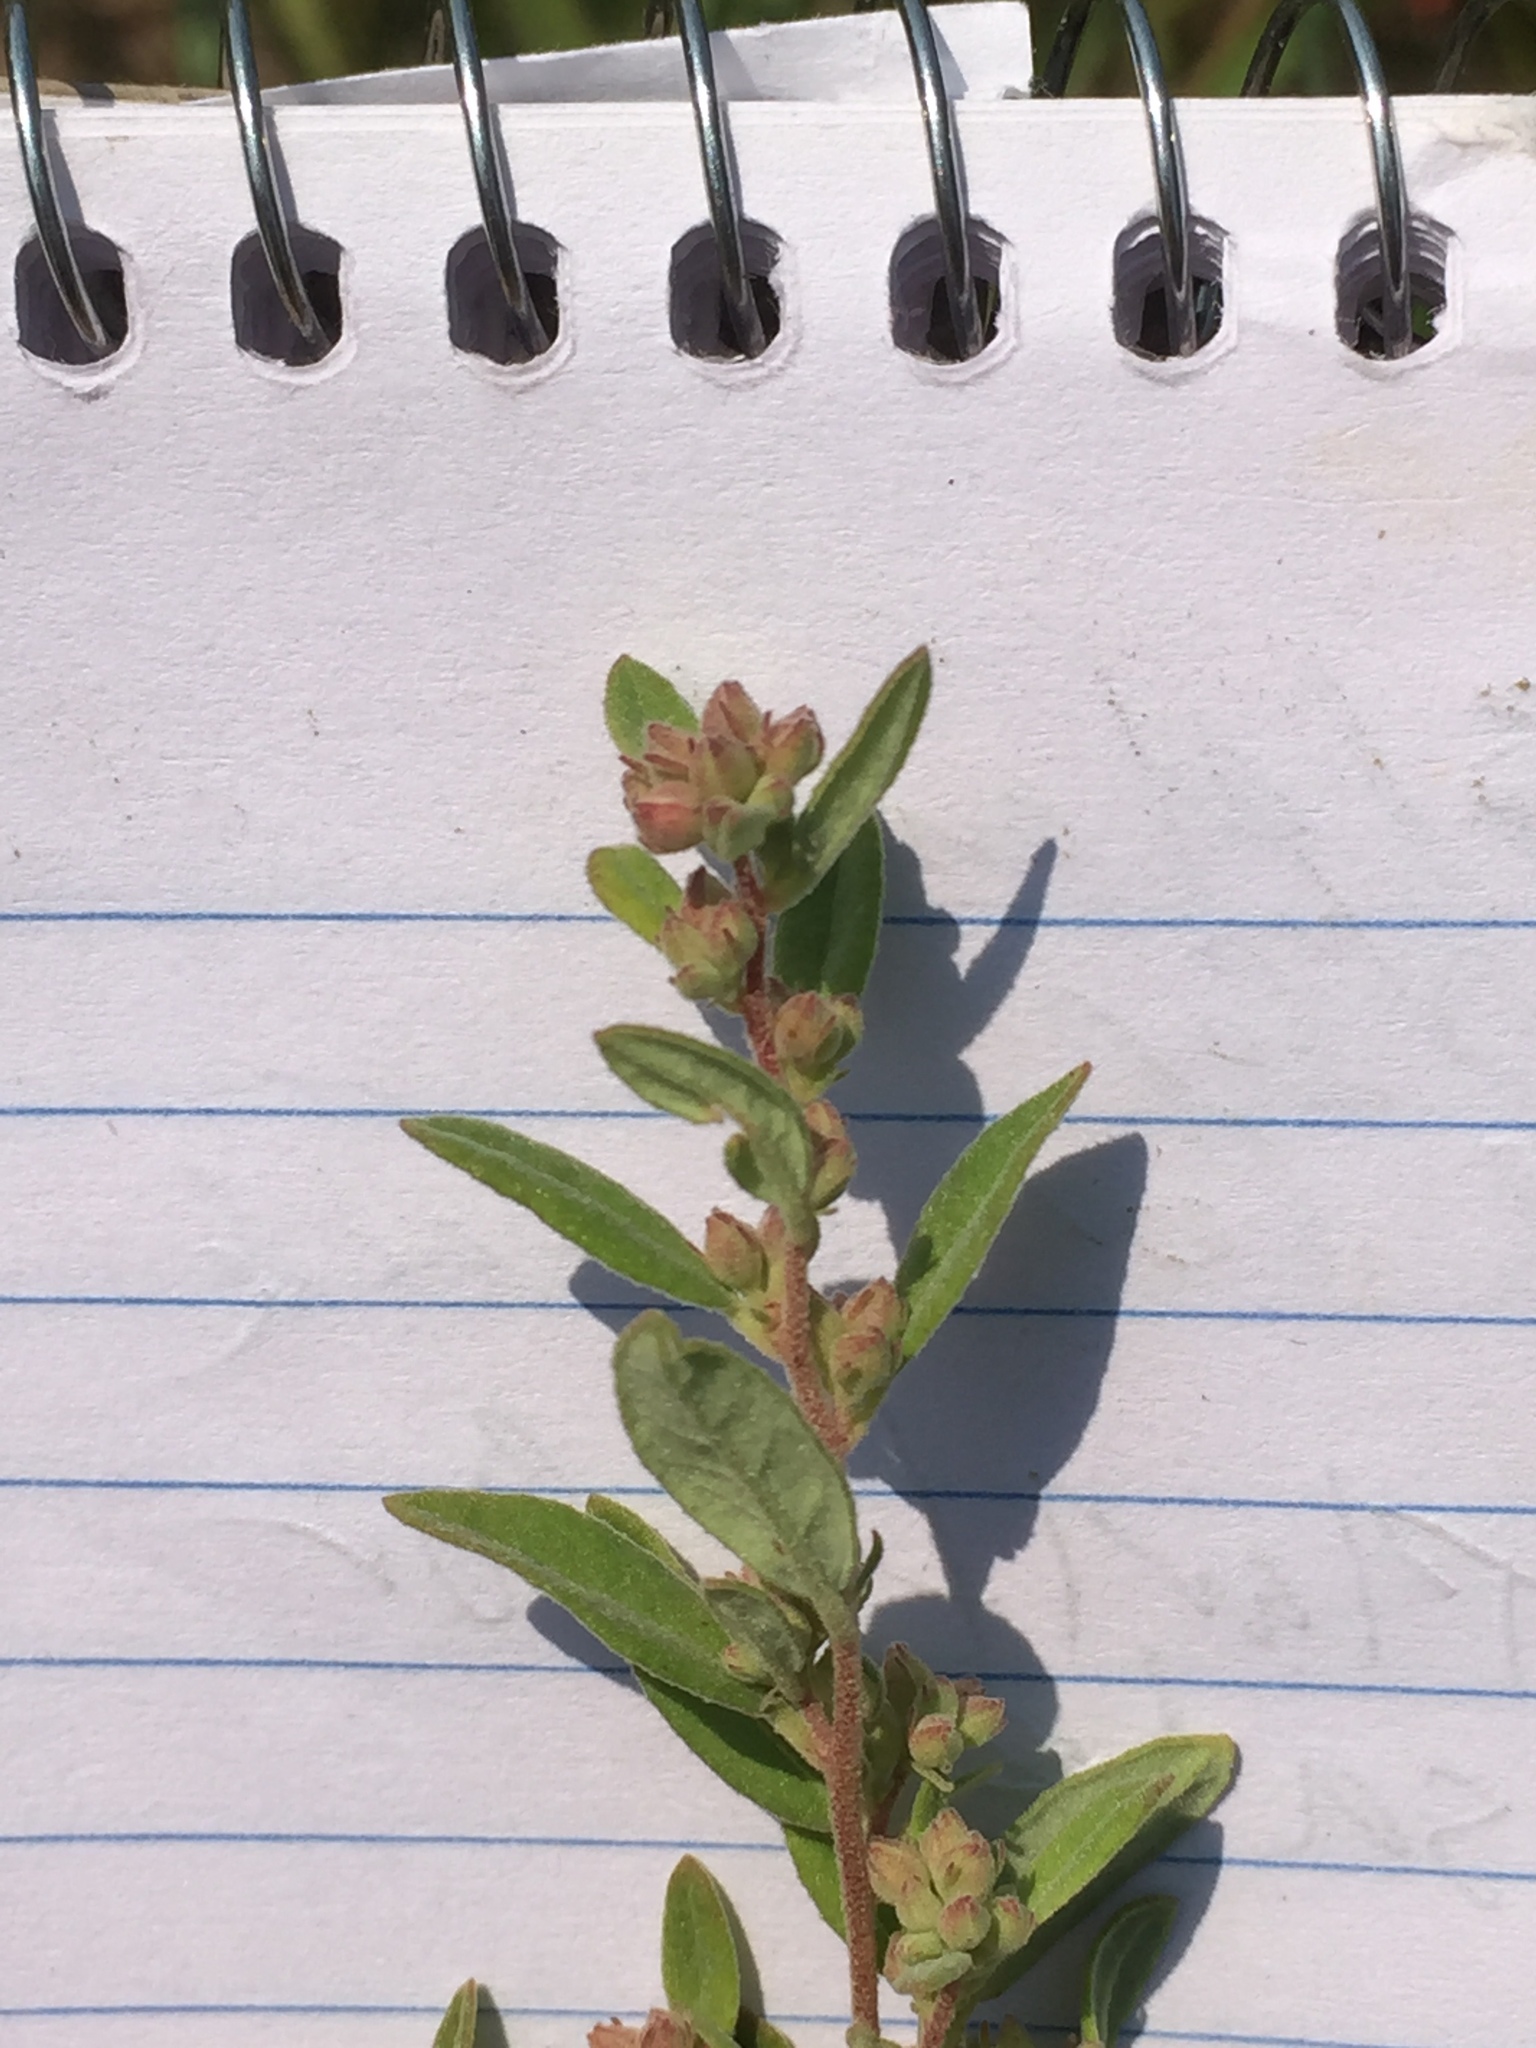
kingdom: Plantae
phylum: Tracheophyta
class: Magnoliopsida
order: Malvales
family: Cistaceae
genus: Crocanthemum
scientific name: Crocanthemum bicknellii
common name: Hoary frostweed
